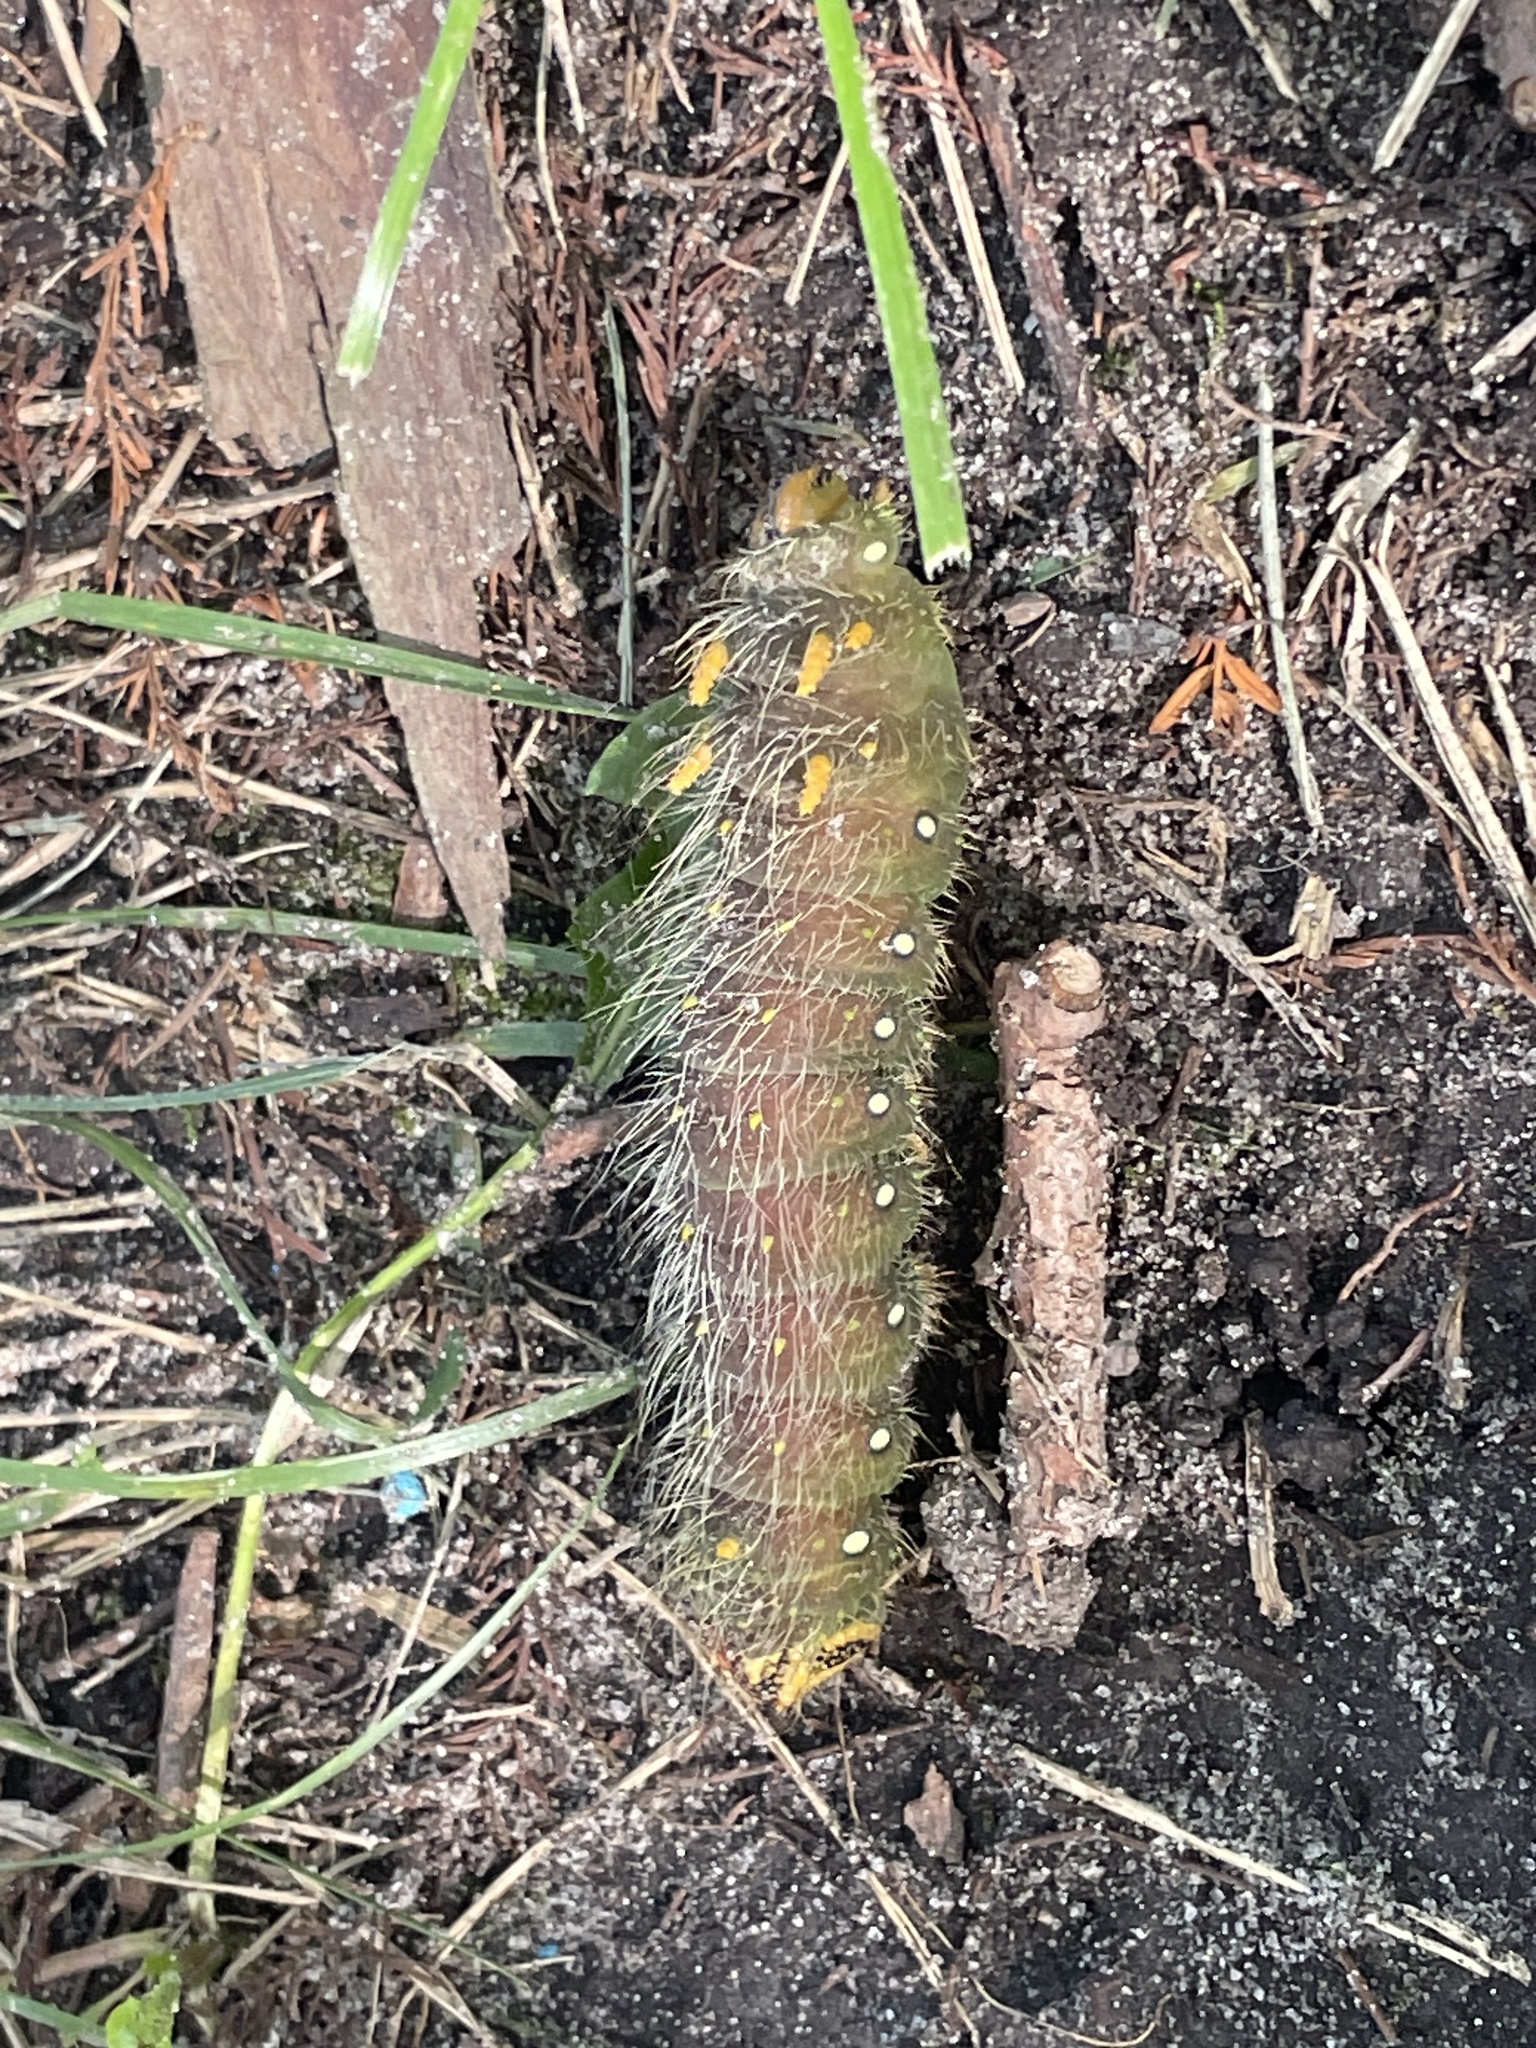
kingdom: Animalia
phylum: Arthropoda
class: Insecta
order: Lepidoptera
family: Saturniidae
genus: Eacles
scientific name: Eacles imperialis
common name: Imperial moth
